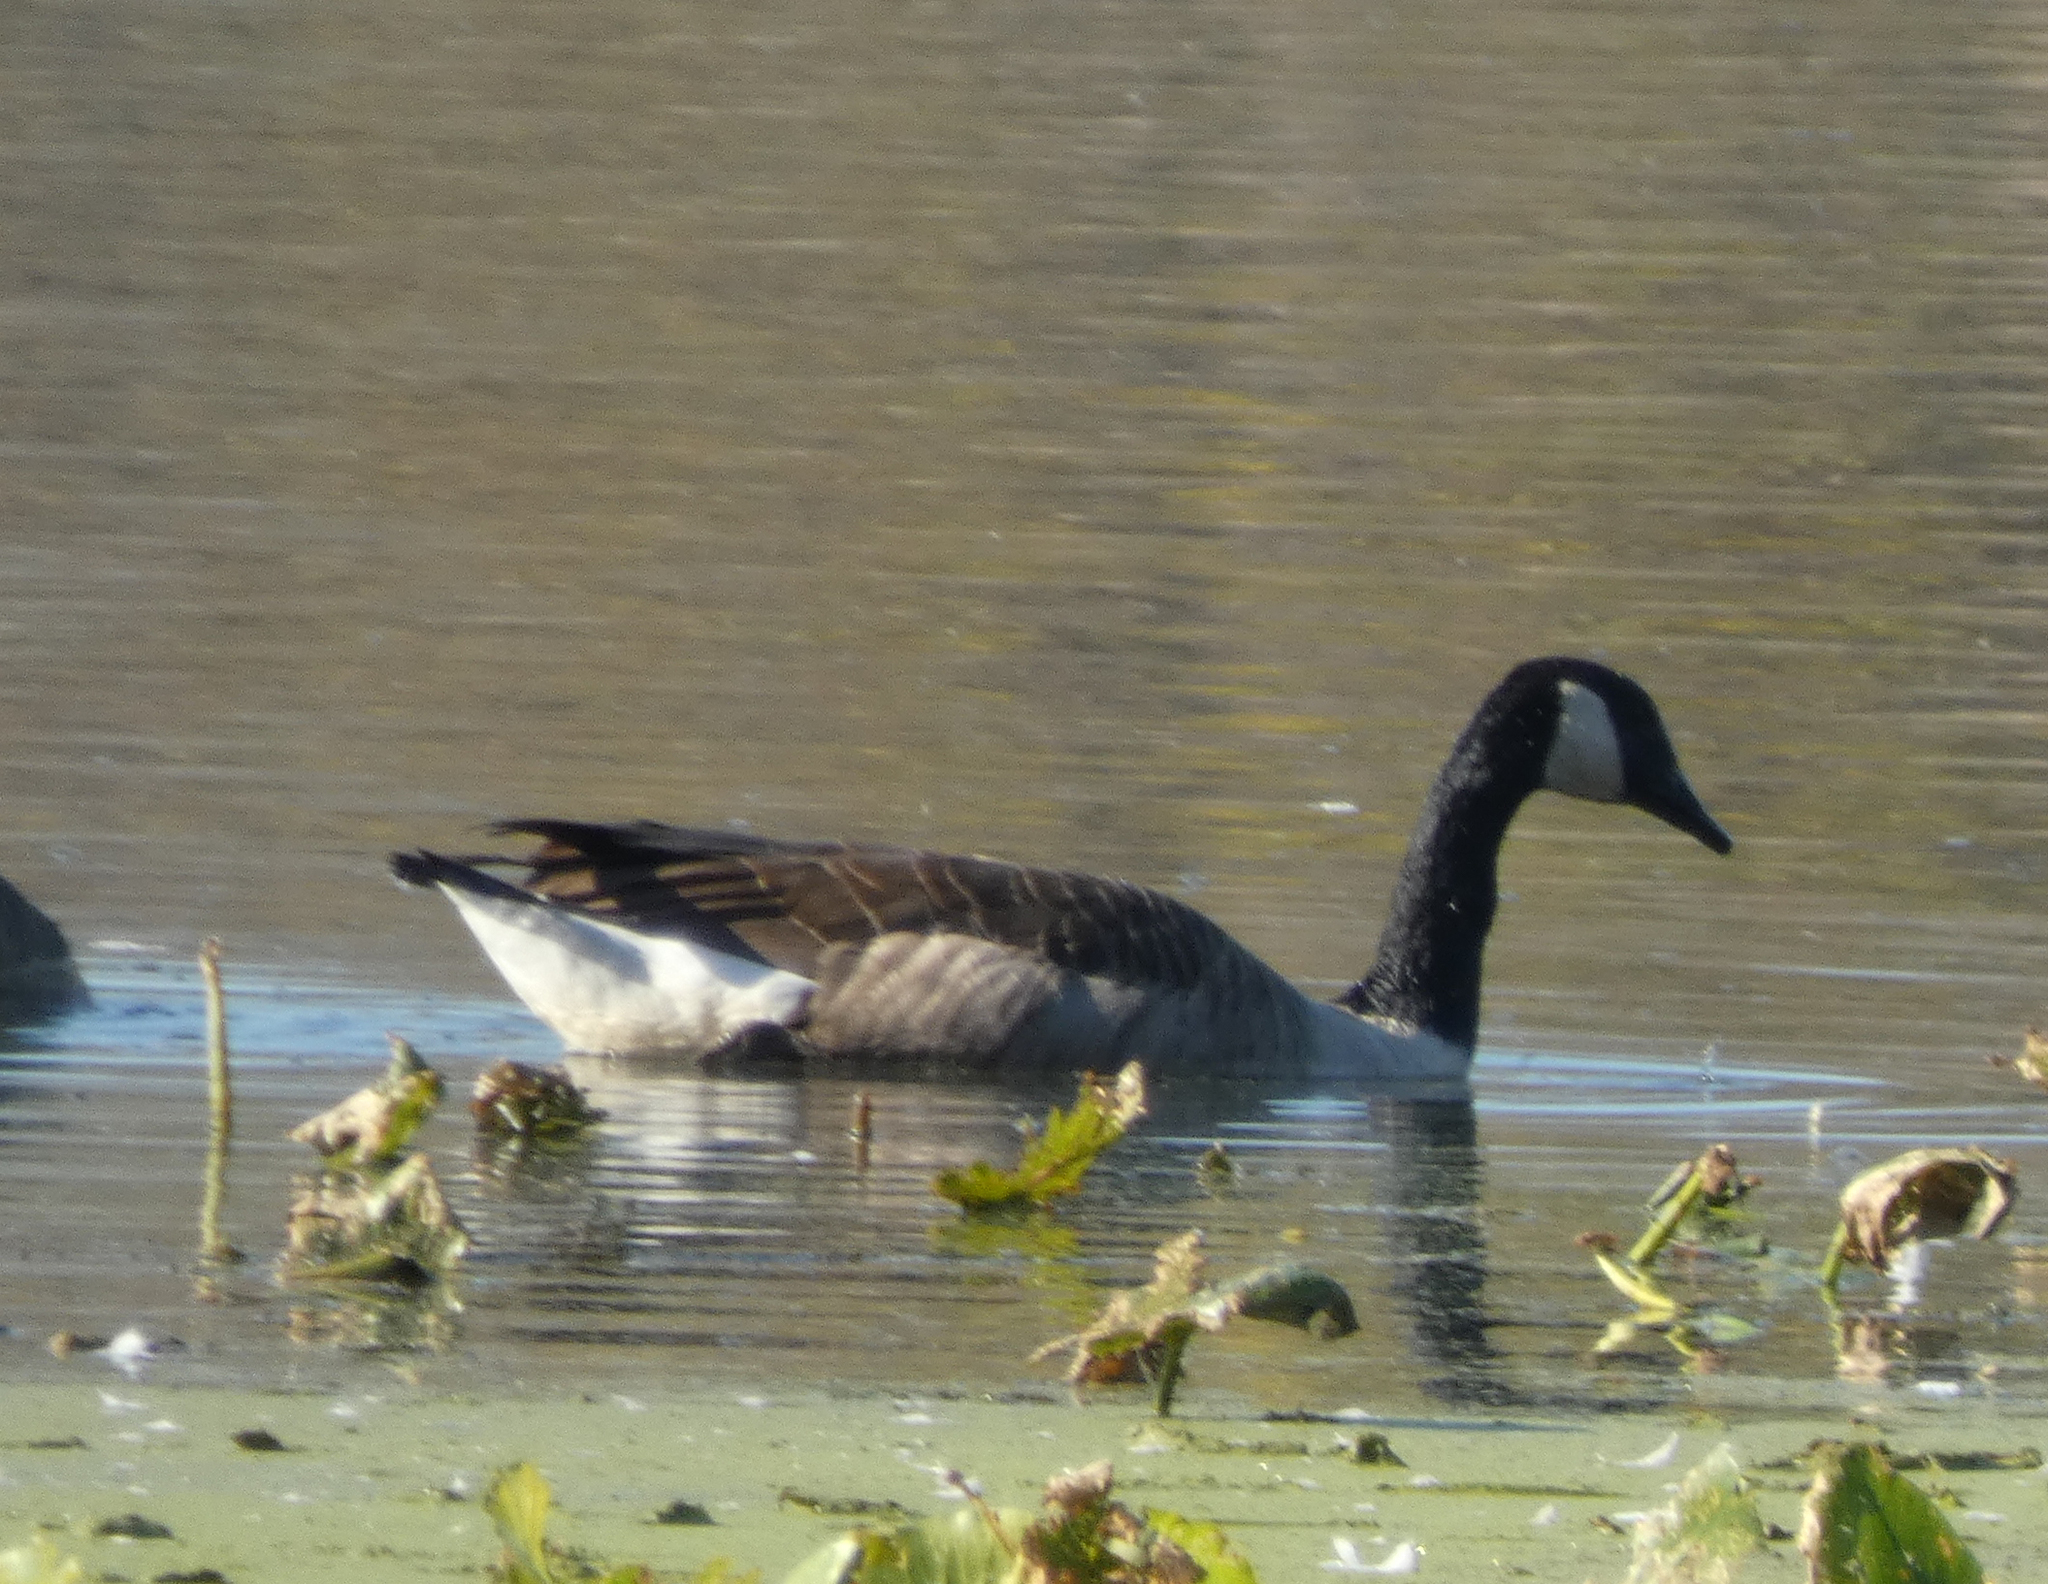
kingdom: Animalia
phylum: Chordata
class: Aves
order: Anseriformes
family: Anatidae
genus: Branta
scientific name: Branta canadensis
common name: Canada goose
